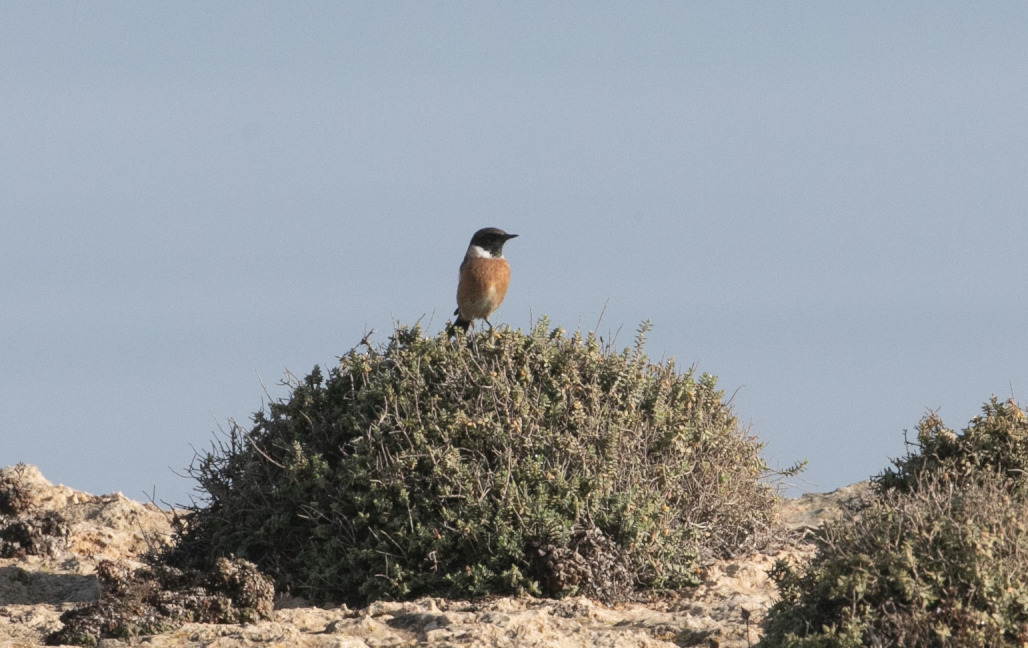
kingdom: Animalia
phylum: Chordata
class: Aves
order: Passeriformes
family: Muscicapidae
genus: Saxicola
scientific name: Saxicola rubicola
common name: European stonechat
